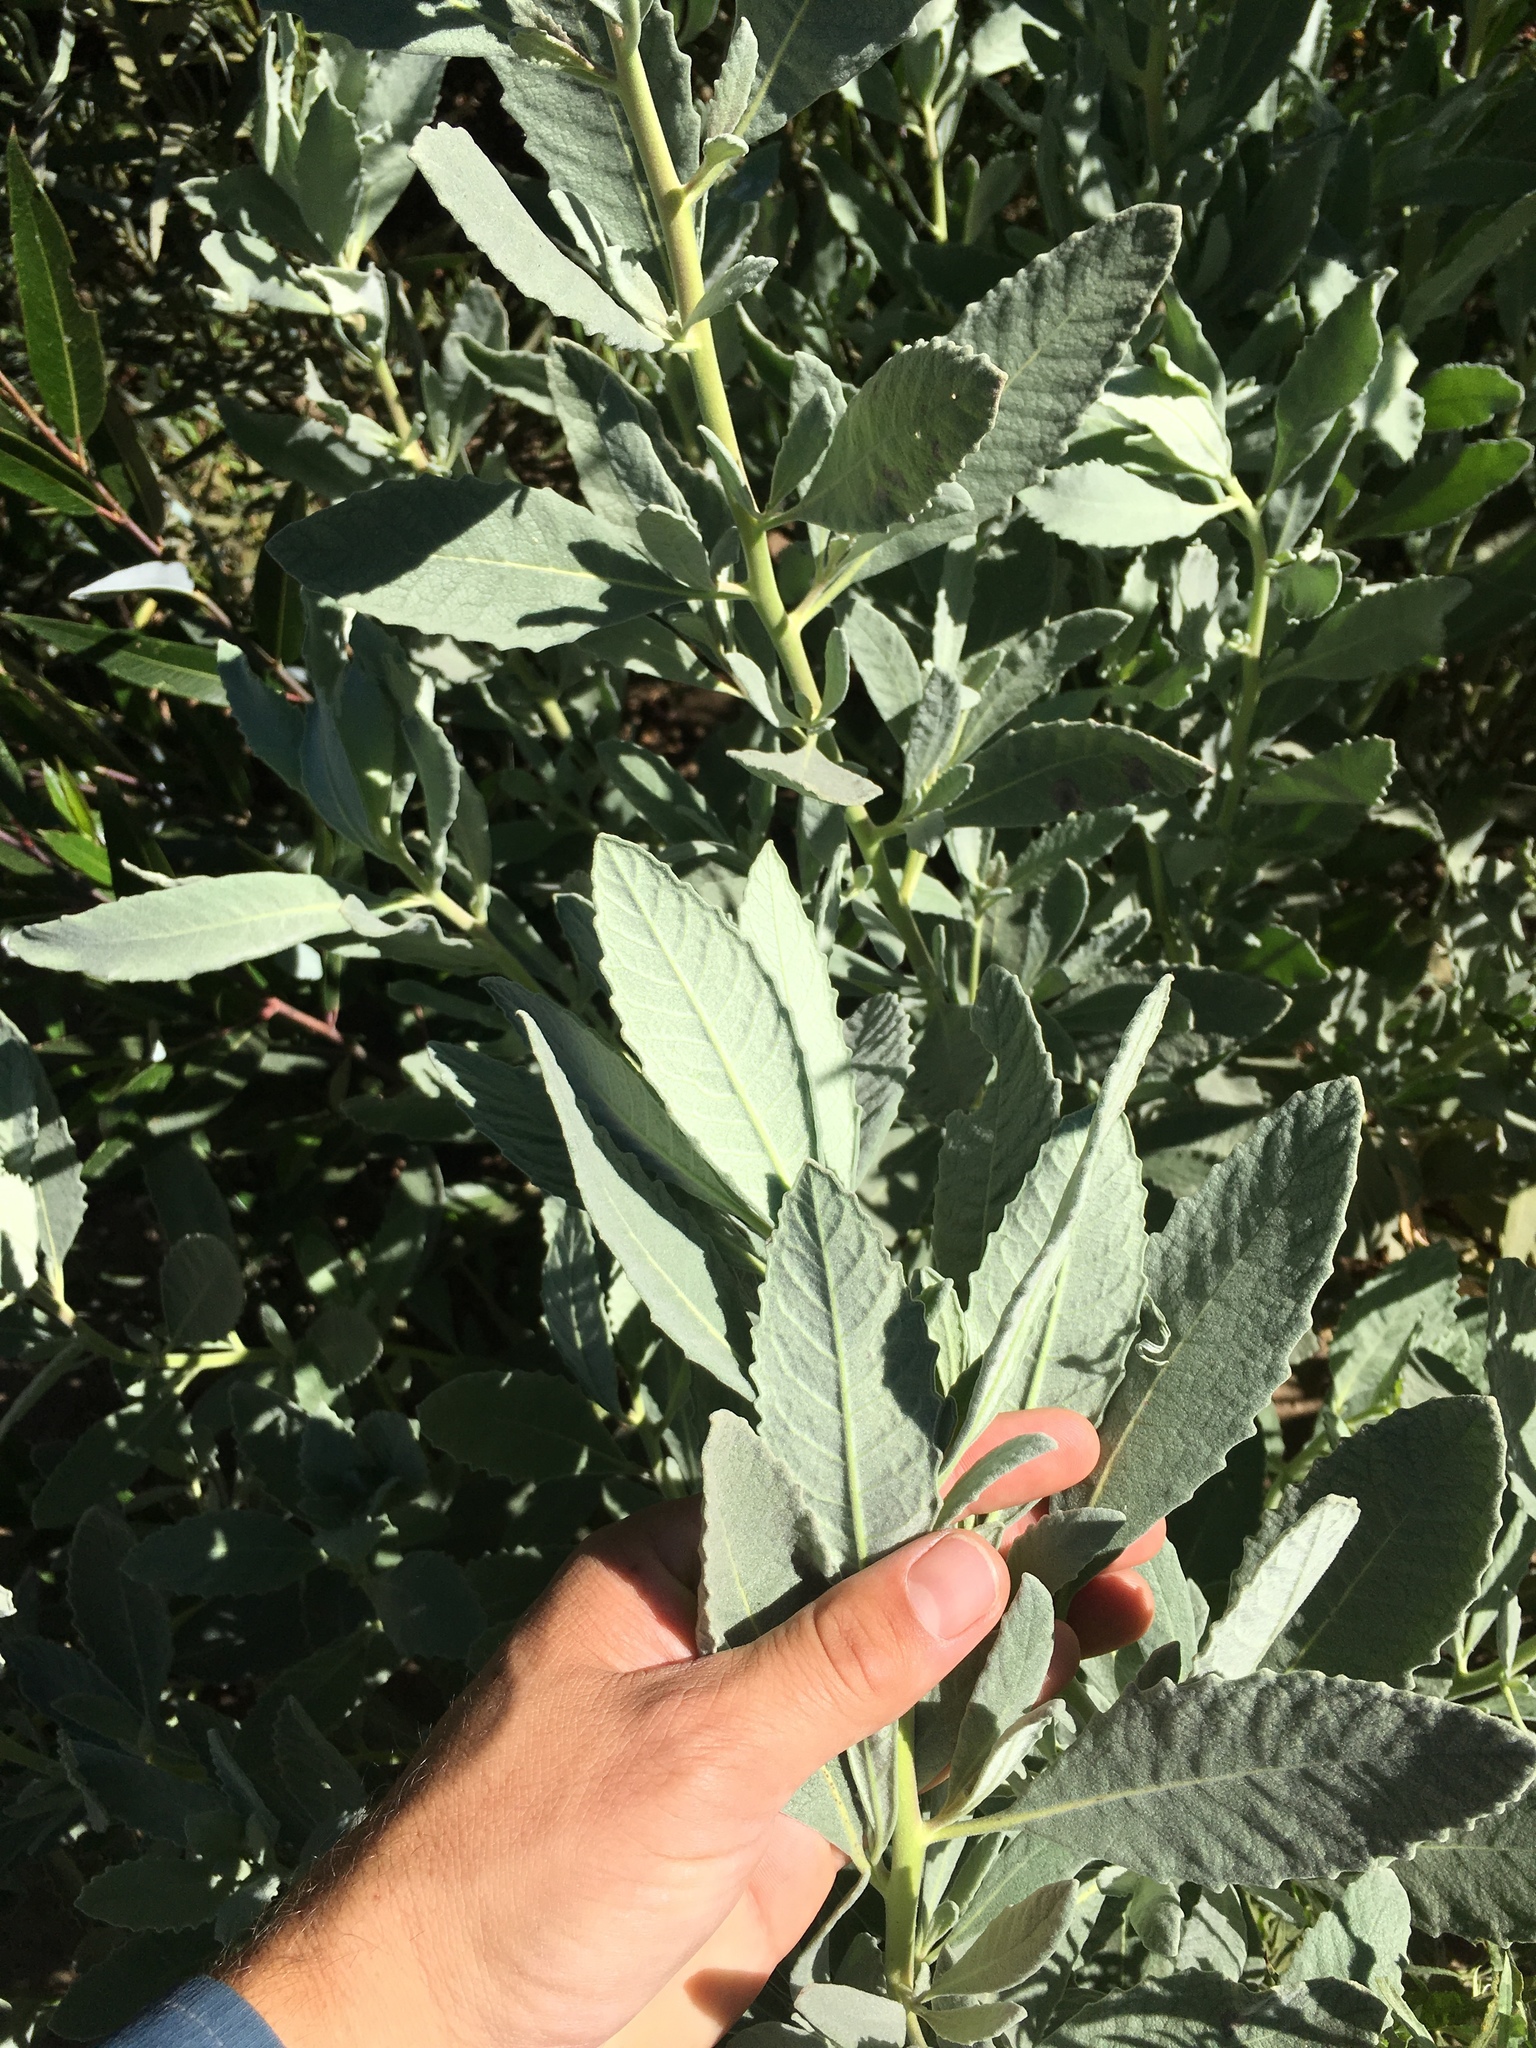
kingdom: Plantae
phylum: Tracheophyta
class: Magnoliopsida
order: Boraginales
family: Namaceae
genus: Eriodictyon
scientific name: Eriodictyon traskiae
